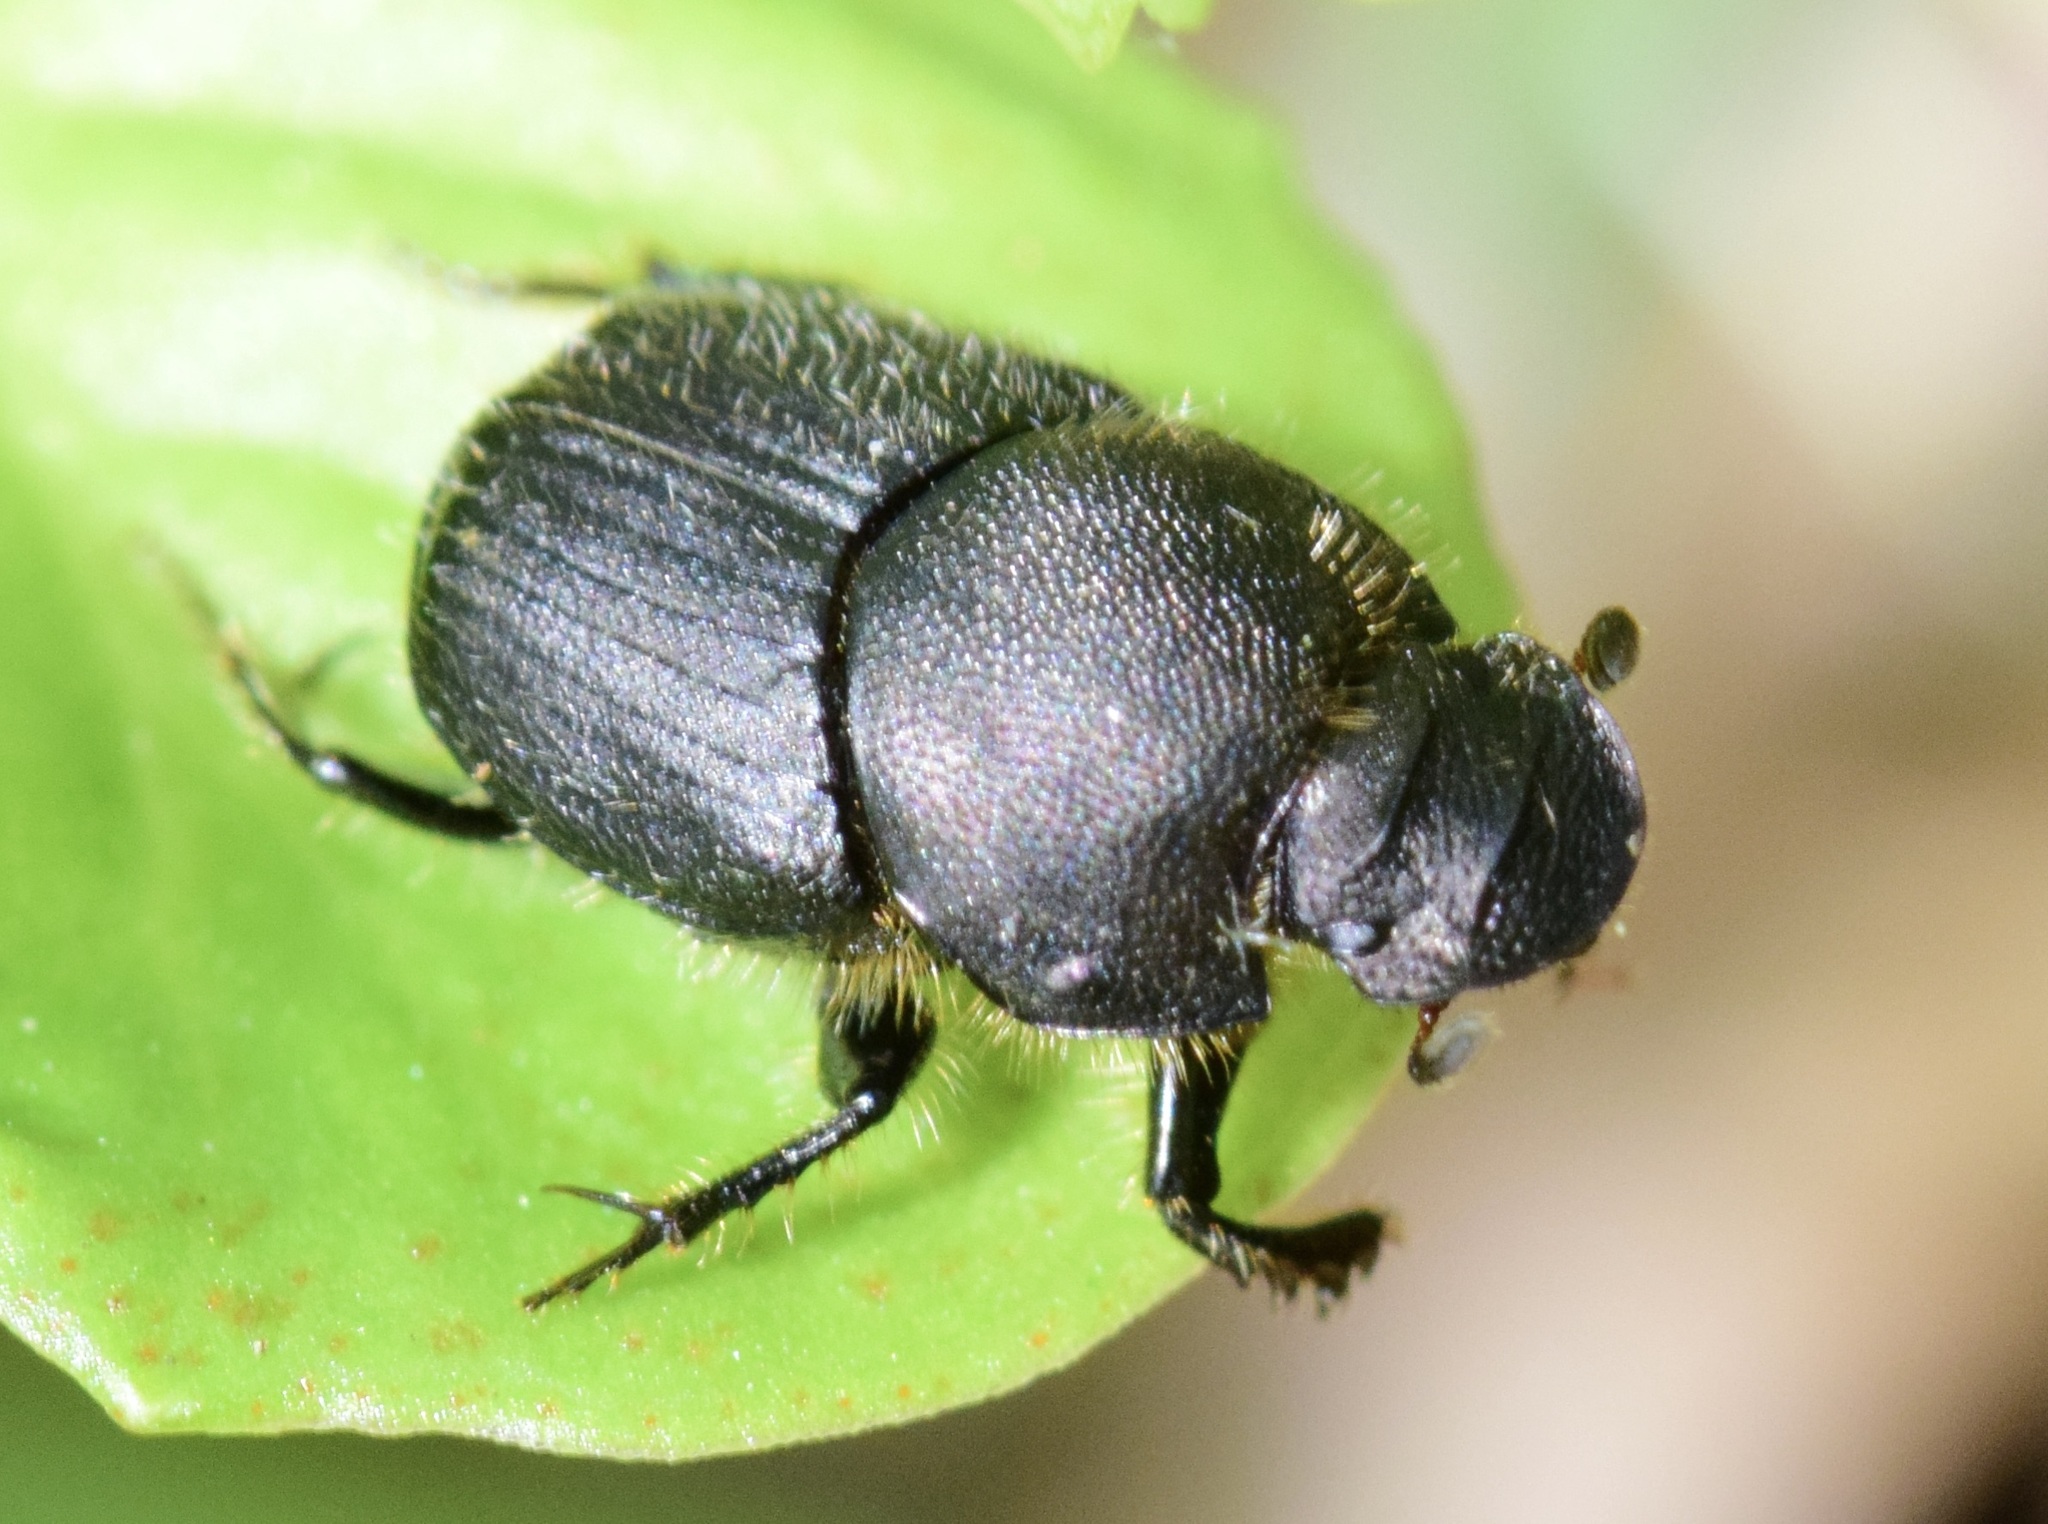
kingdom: Animalia
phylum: Arthropoda
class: Insecta
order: Coleoptera
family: Scarabaeidae
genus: Onthophagus
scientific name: Onthophagus hecate
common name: Scooped scarab
